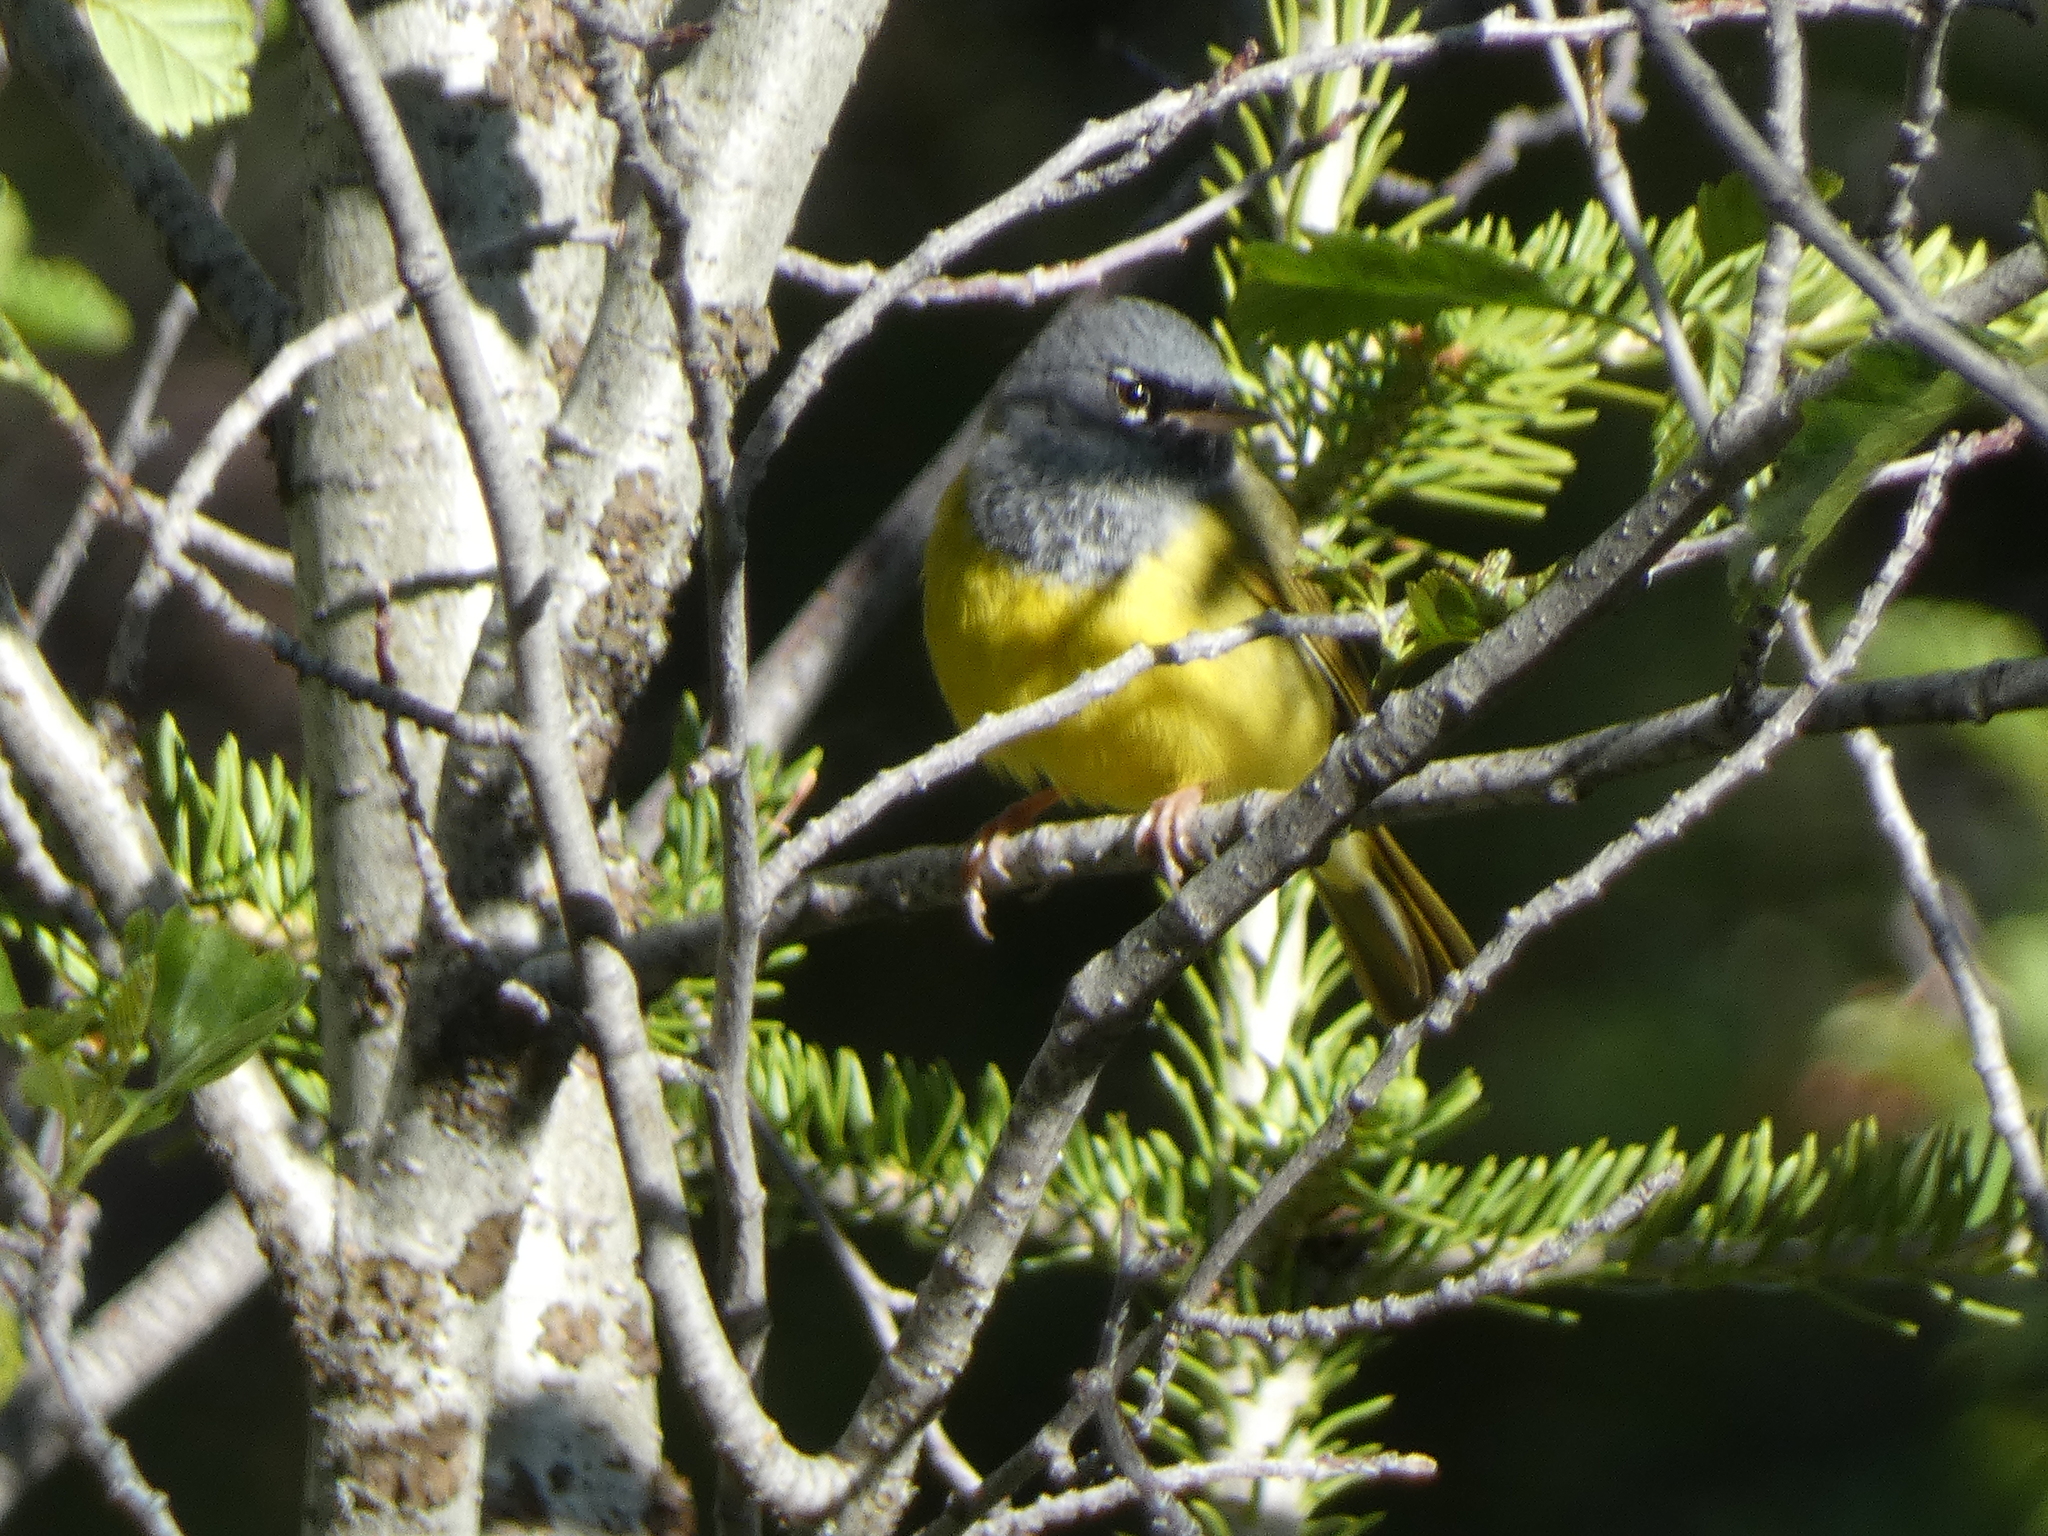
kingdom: Animalia
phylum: Chordata
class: Aves
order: Passeriformes
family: Parulidae
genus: Geothlypis
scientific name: Geothlypis tolmiei
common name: Macgillivray's warbler
